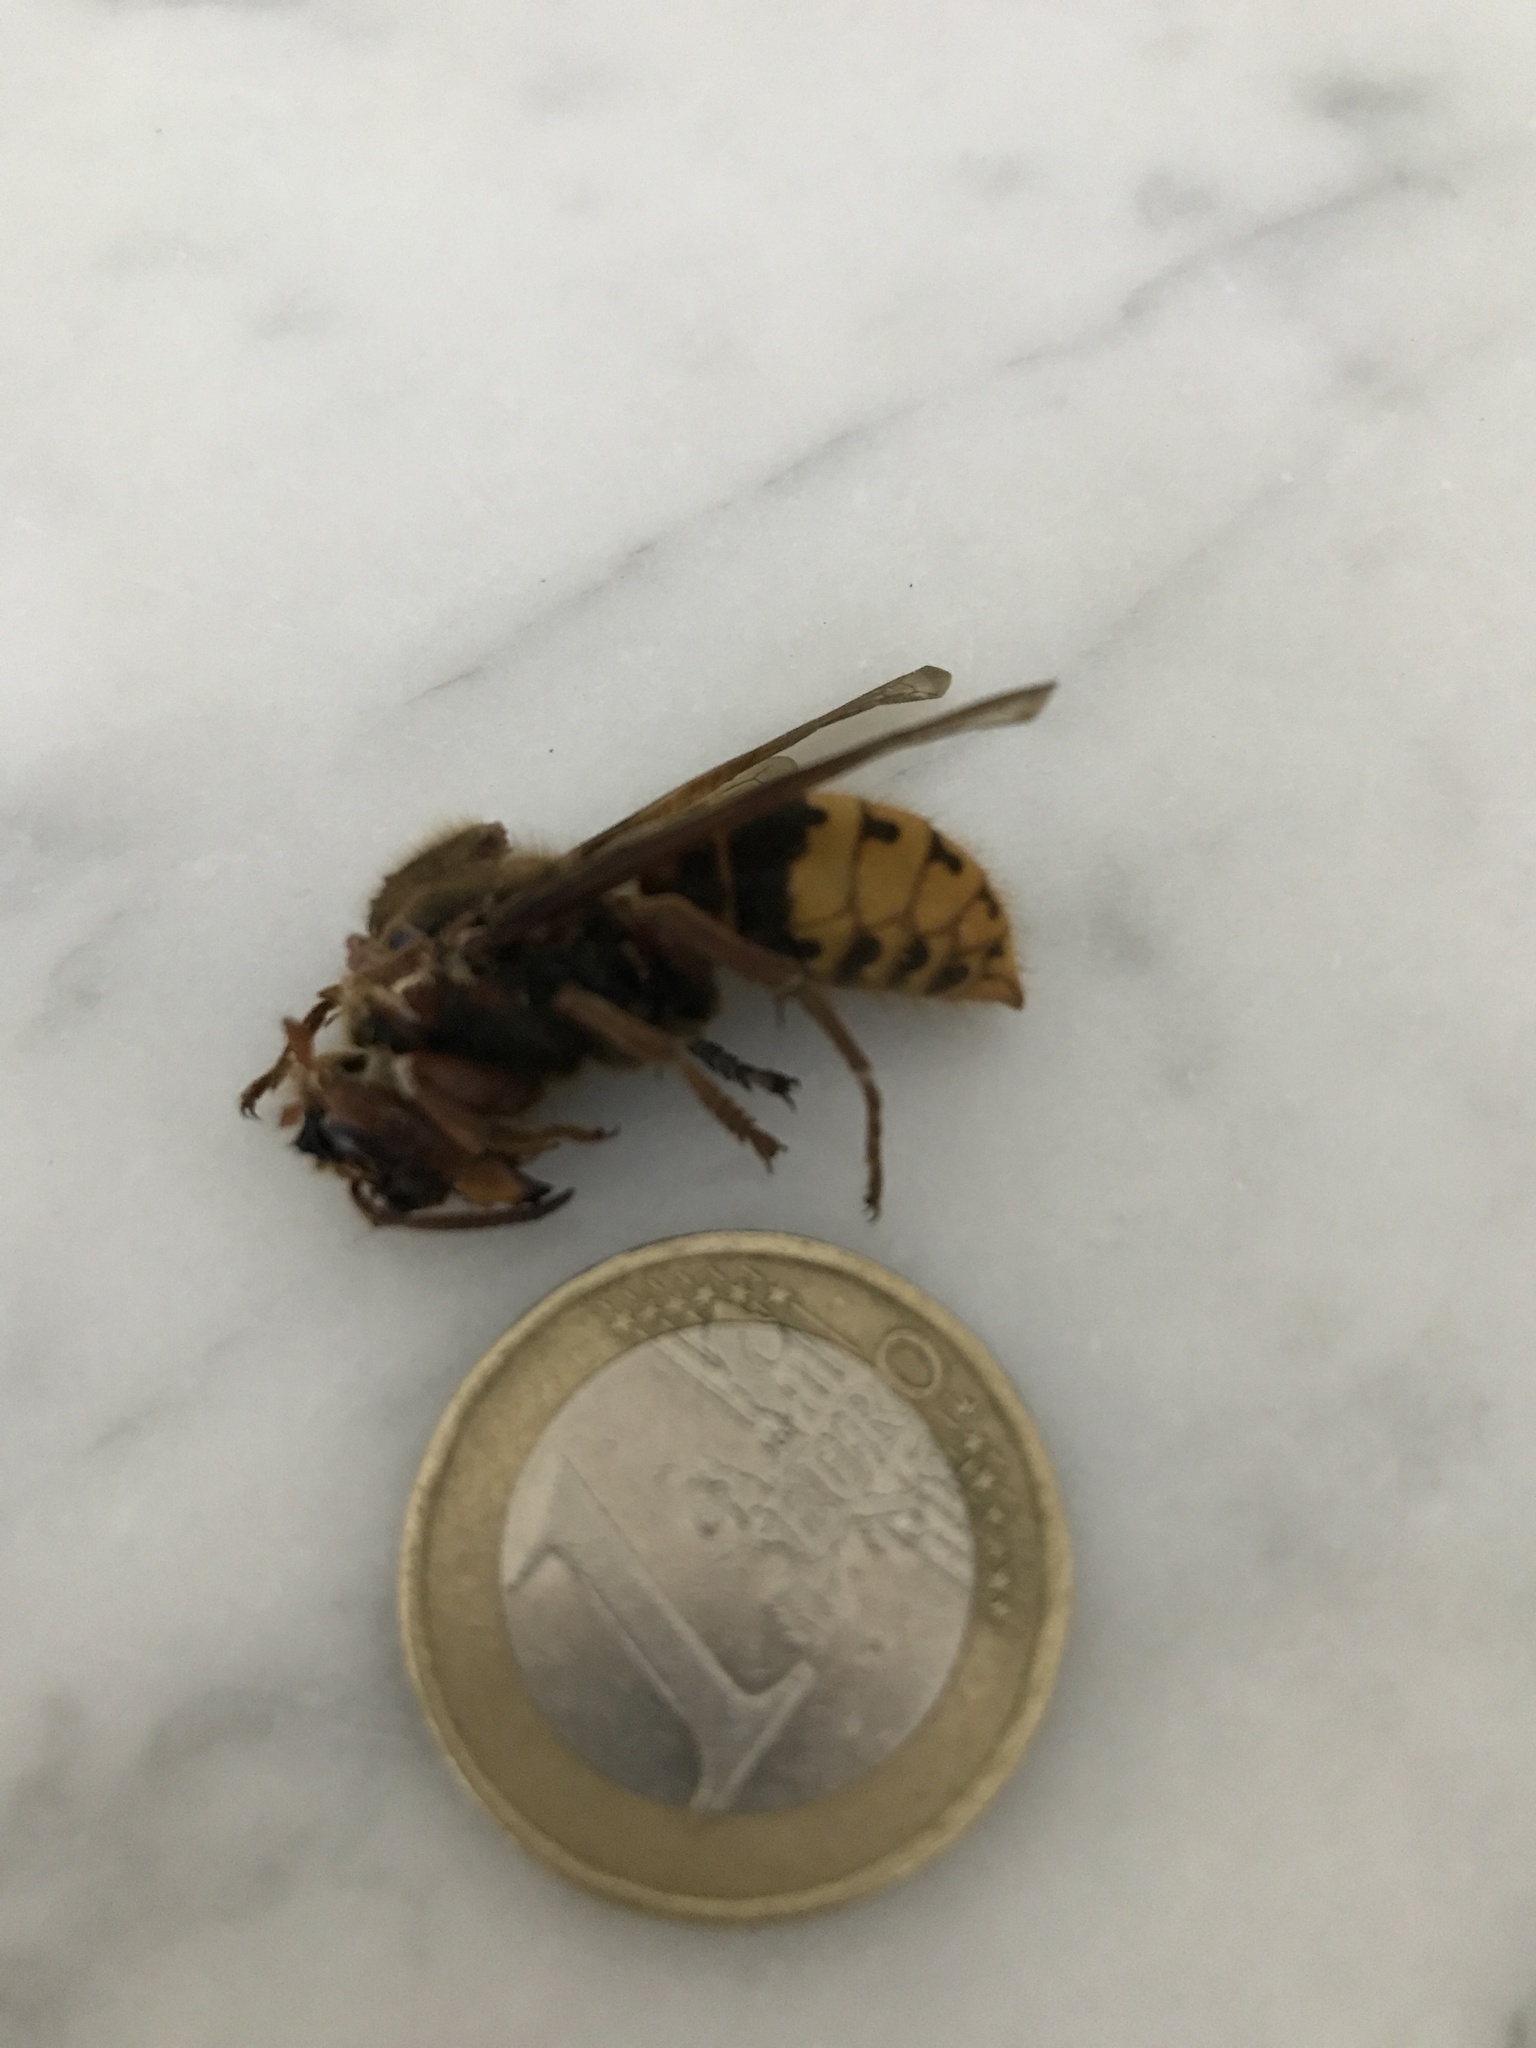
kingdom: Animalia
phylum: Arthropoda
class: Insecta
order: Hymenoptera
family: Vespidae
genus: Vespa
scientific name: Vespa crabro
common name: Hornet
